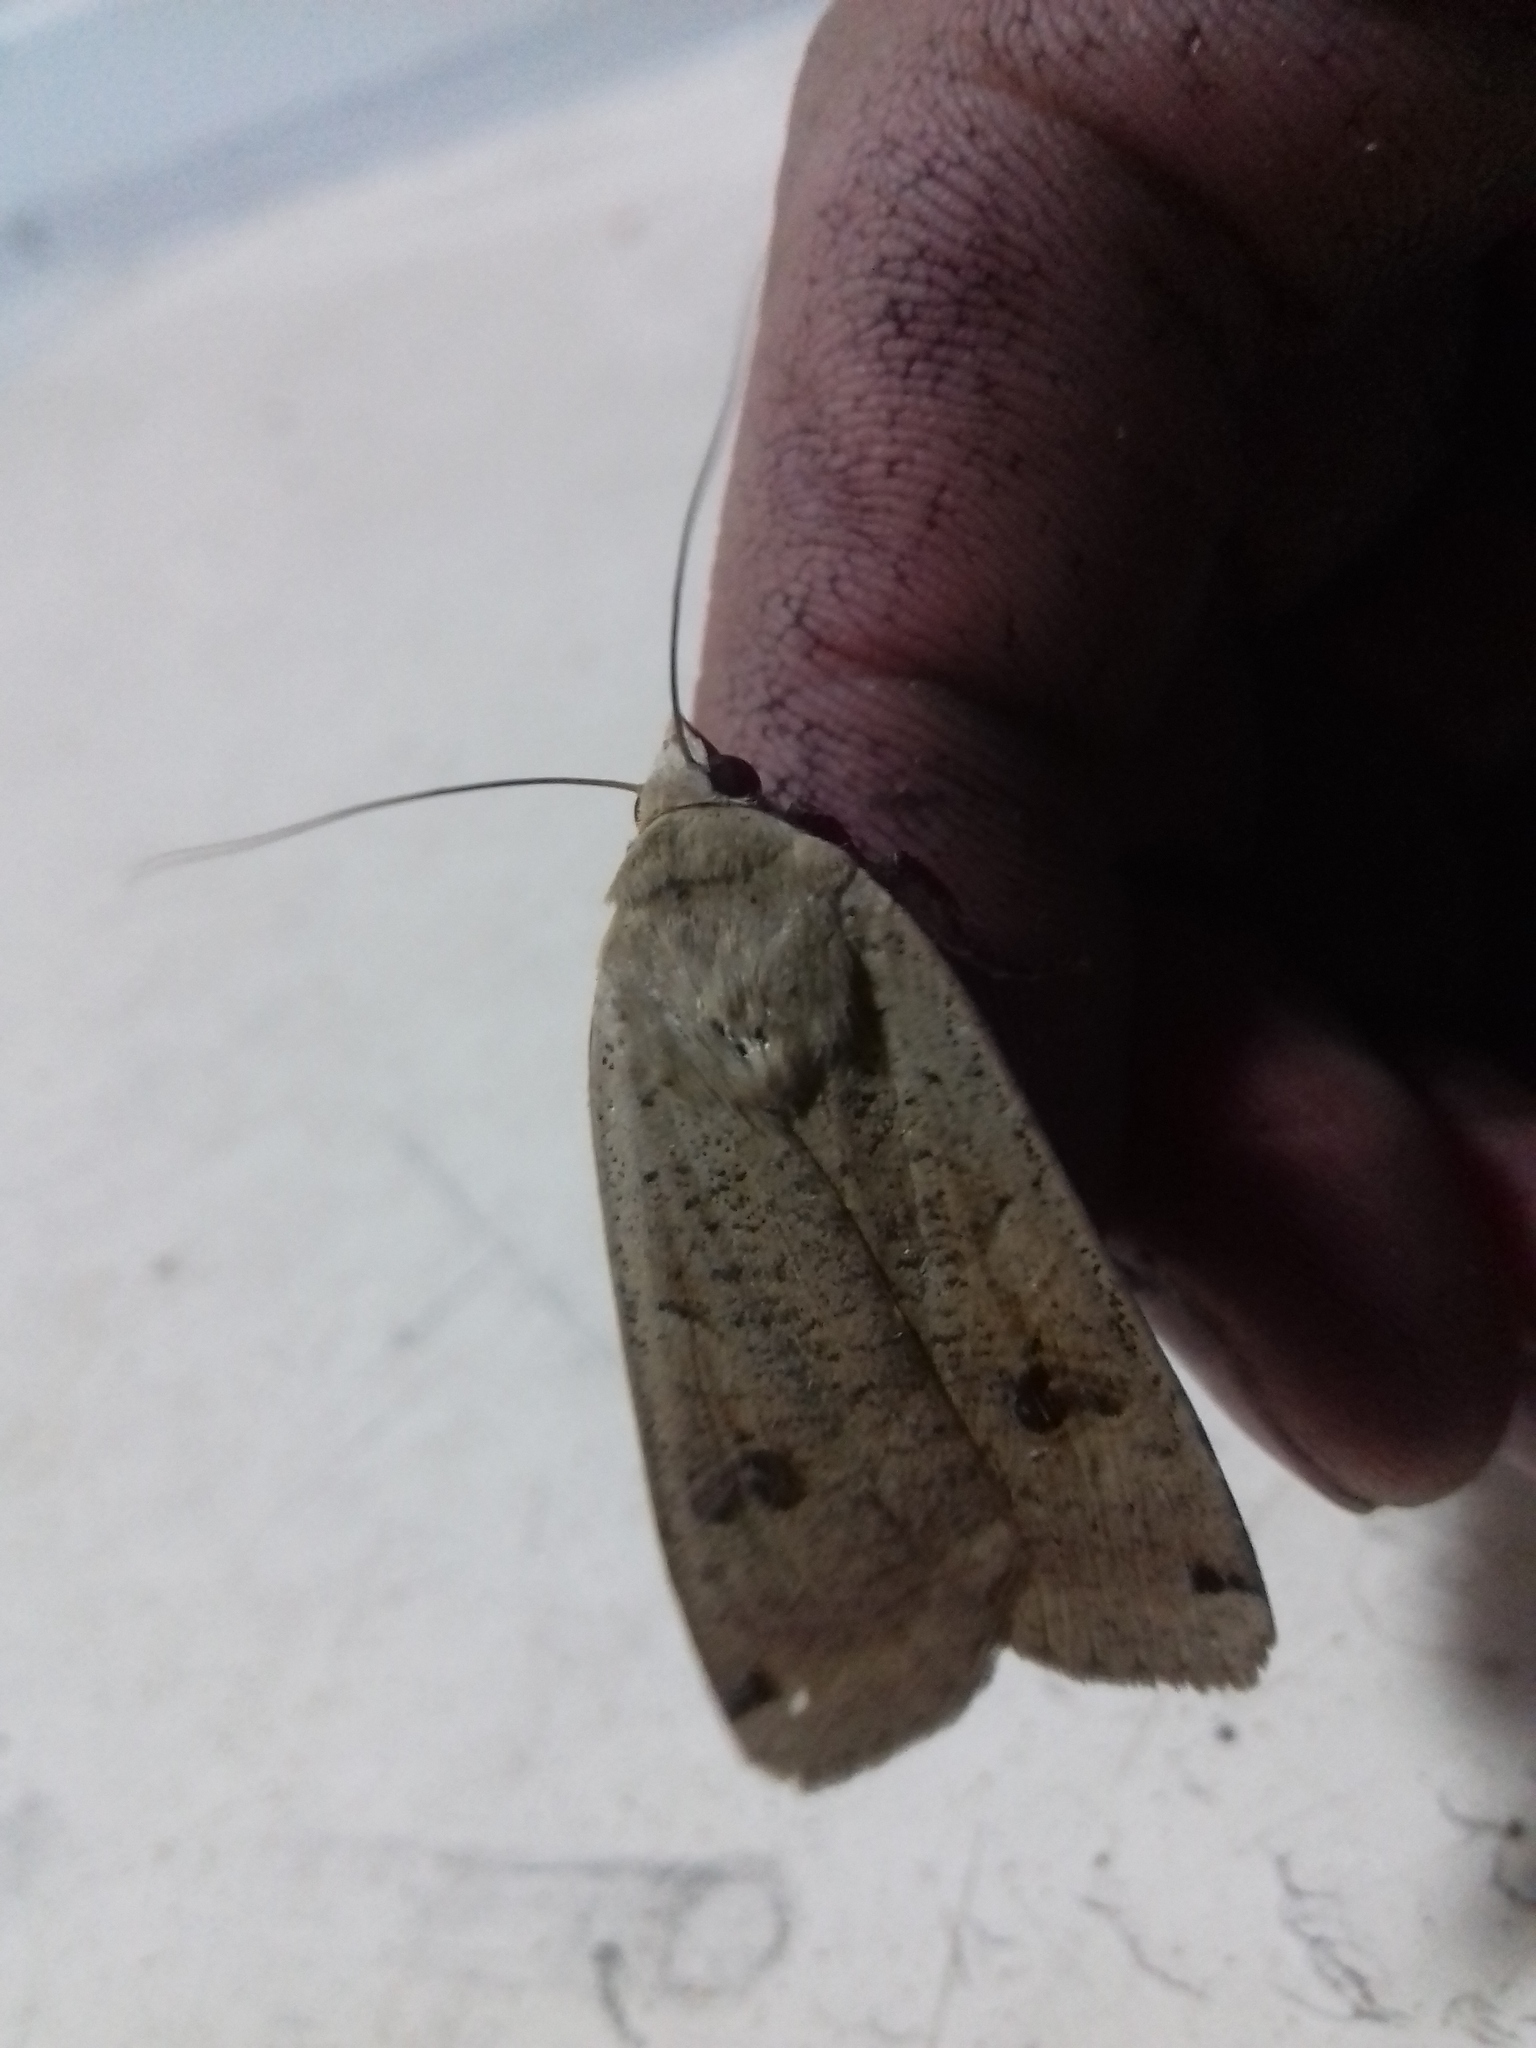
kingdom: Animalia
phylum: Arthropoda
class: Insecta
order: Lepidoptera
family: Noctuidae
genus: Noctua
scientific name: Noctua pronuba
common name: Large yellow underwing
